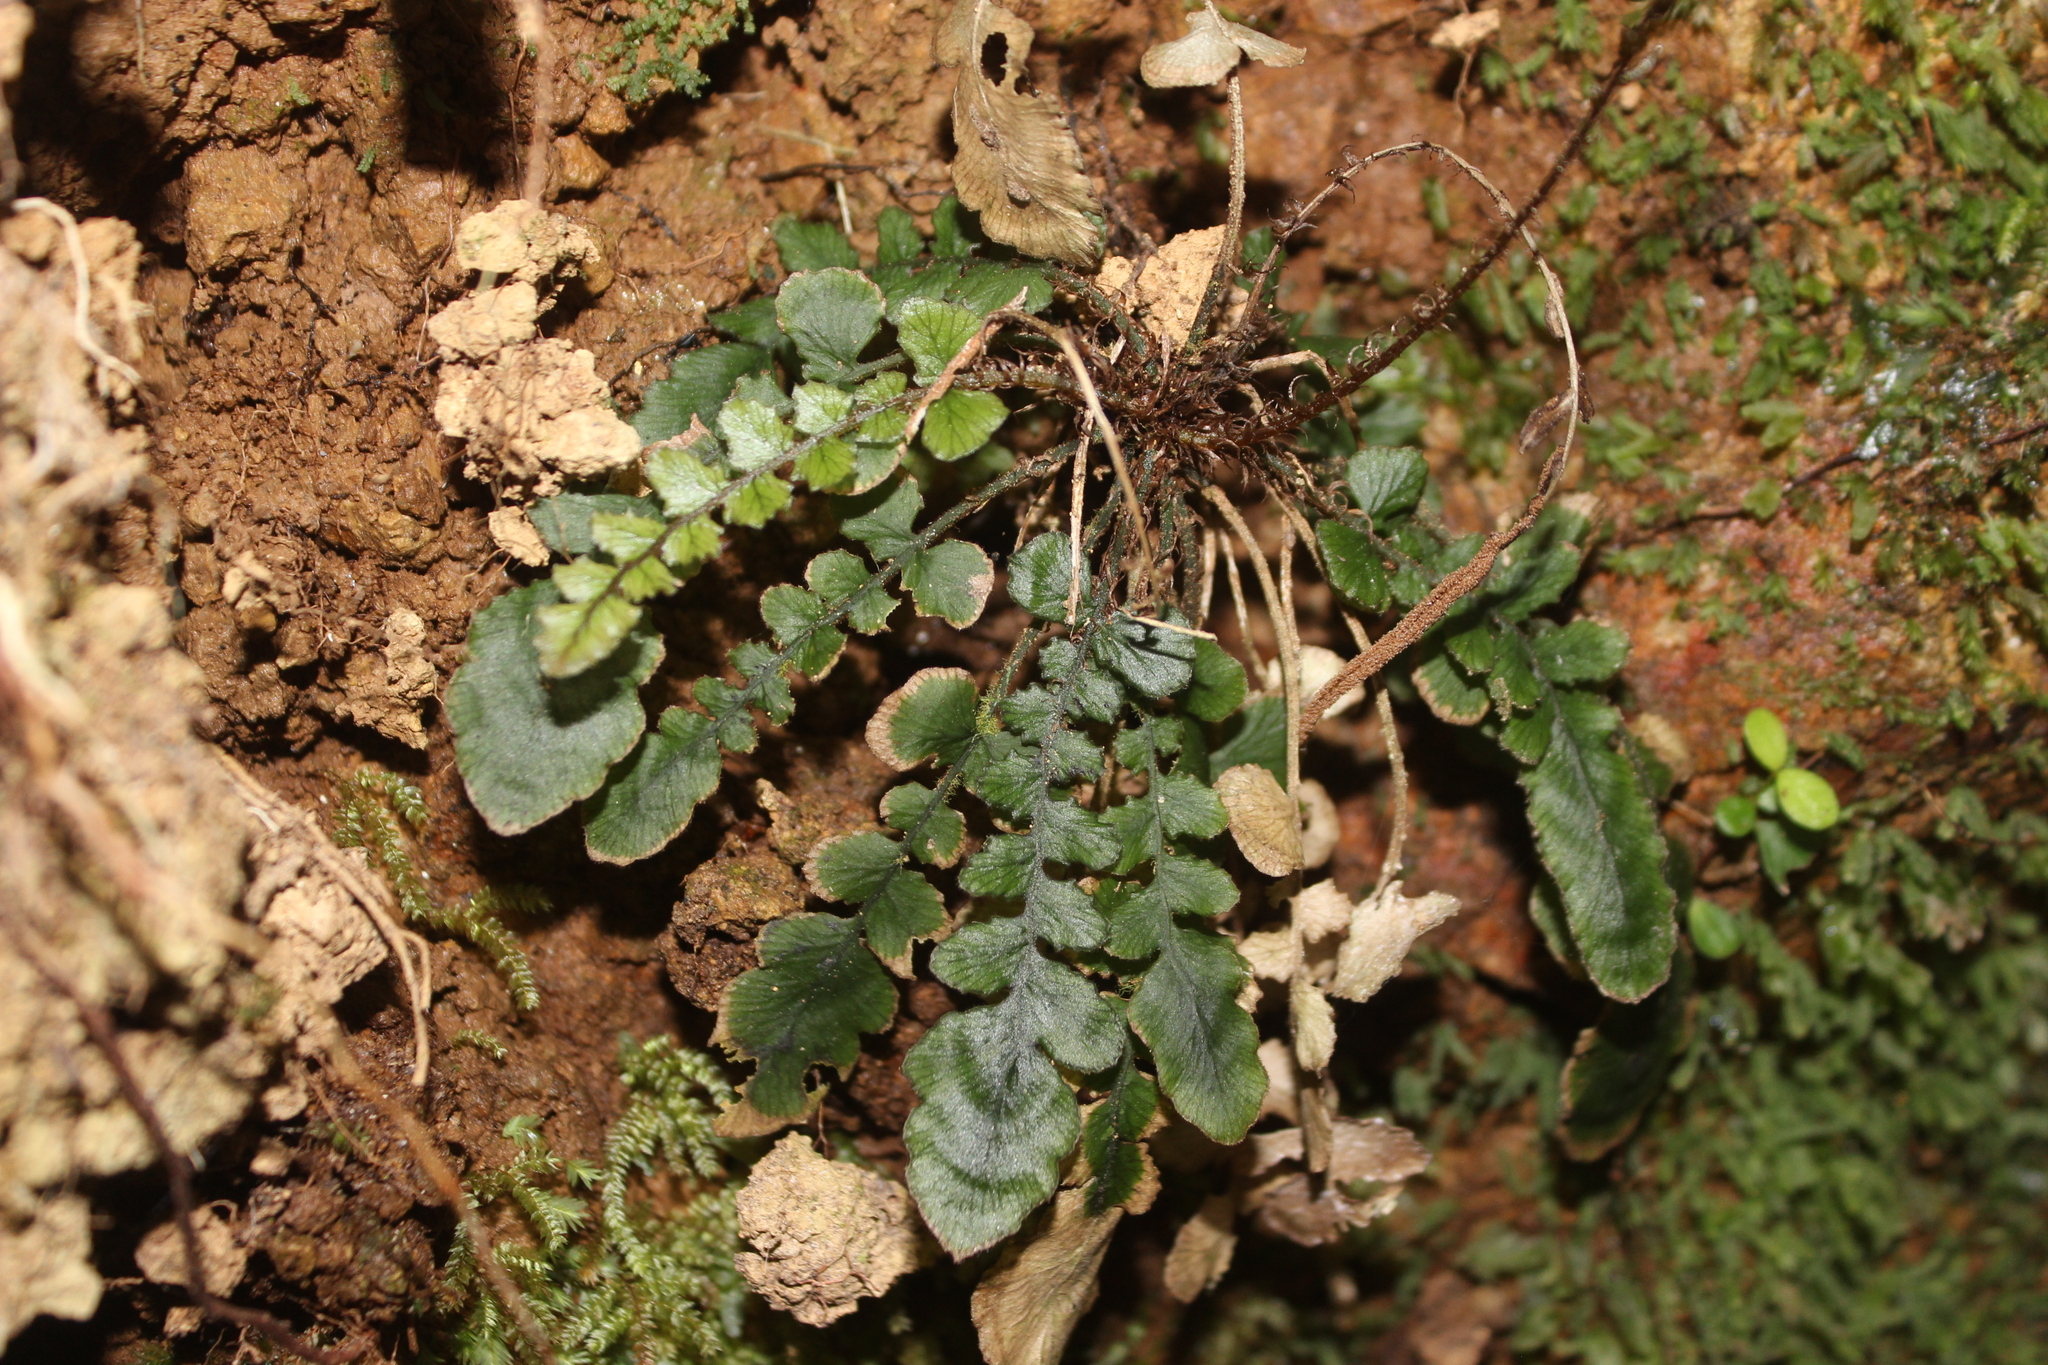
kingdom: Plantae
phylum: Tracheophyta
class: Polypodiopsida
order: Polypodiales
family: Blechnaceae
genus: Cranfillia
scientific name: Cranfillia nigra
